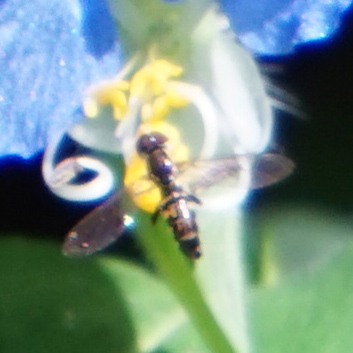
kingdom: Animalia
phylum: Arthropoda
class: Insecta
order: Diptera
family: Syrphidae
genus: Toxomerus
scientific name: Toxomerus geminatus
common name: Eastern calligrapher
